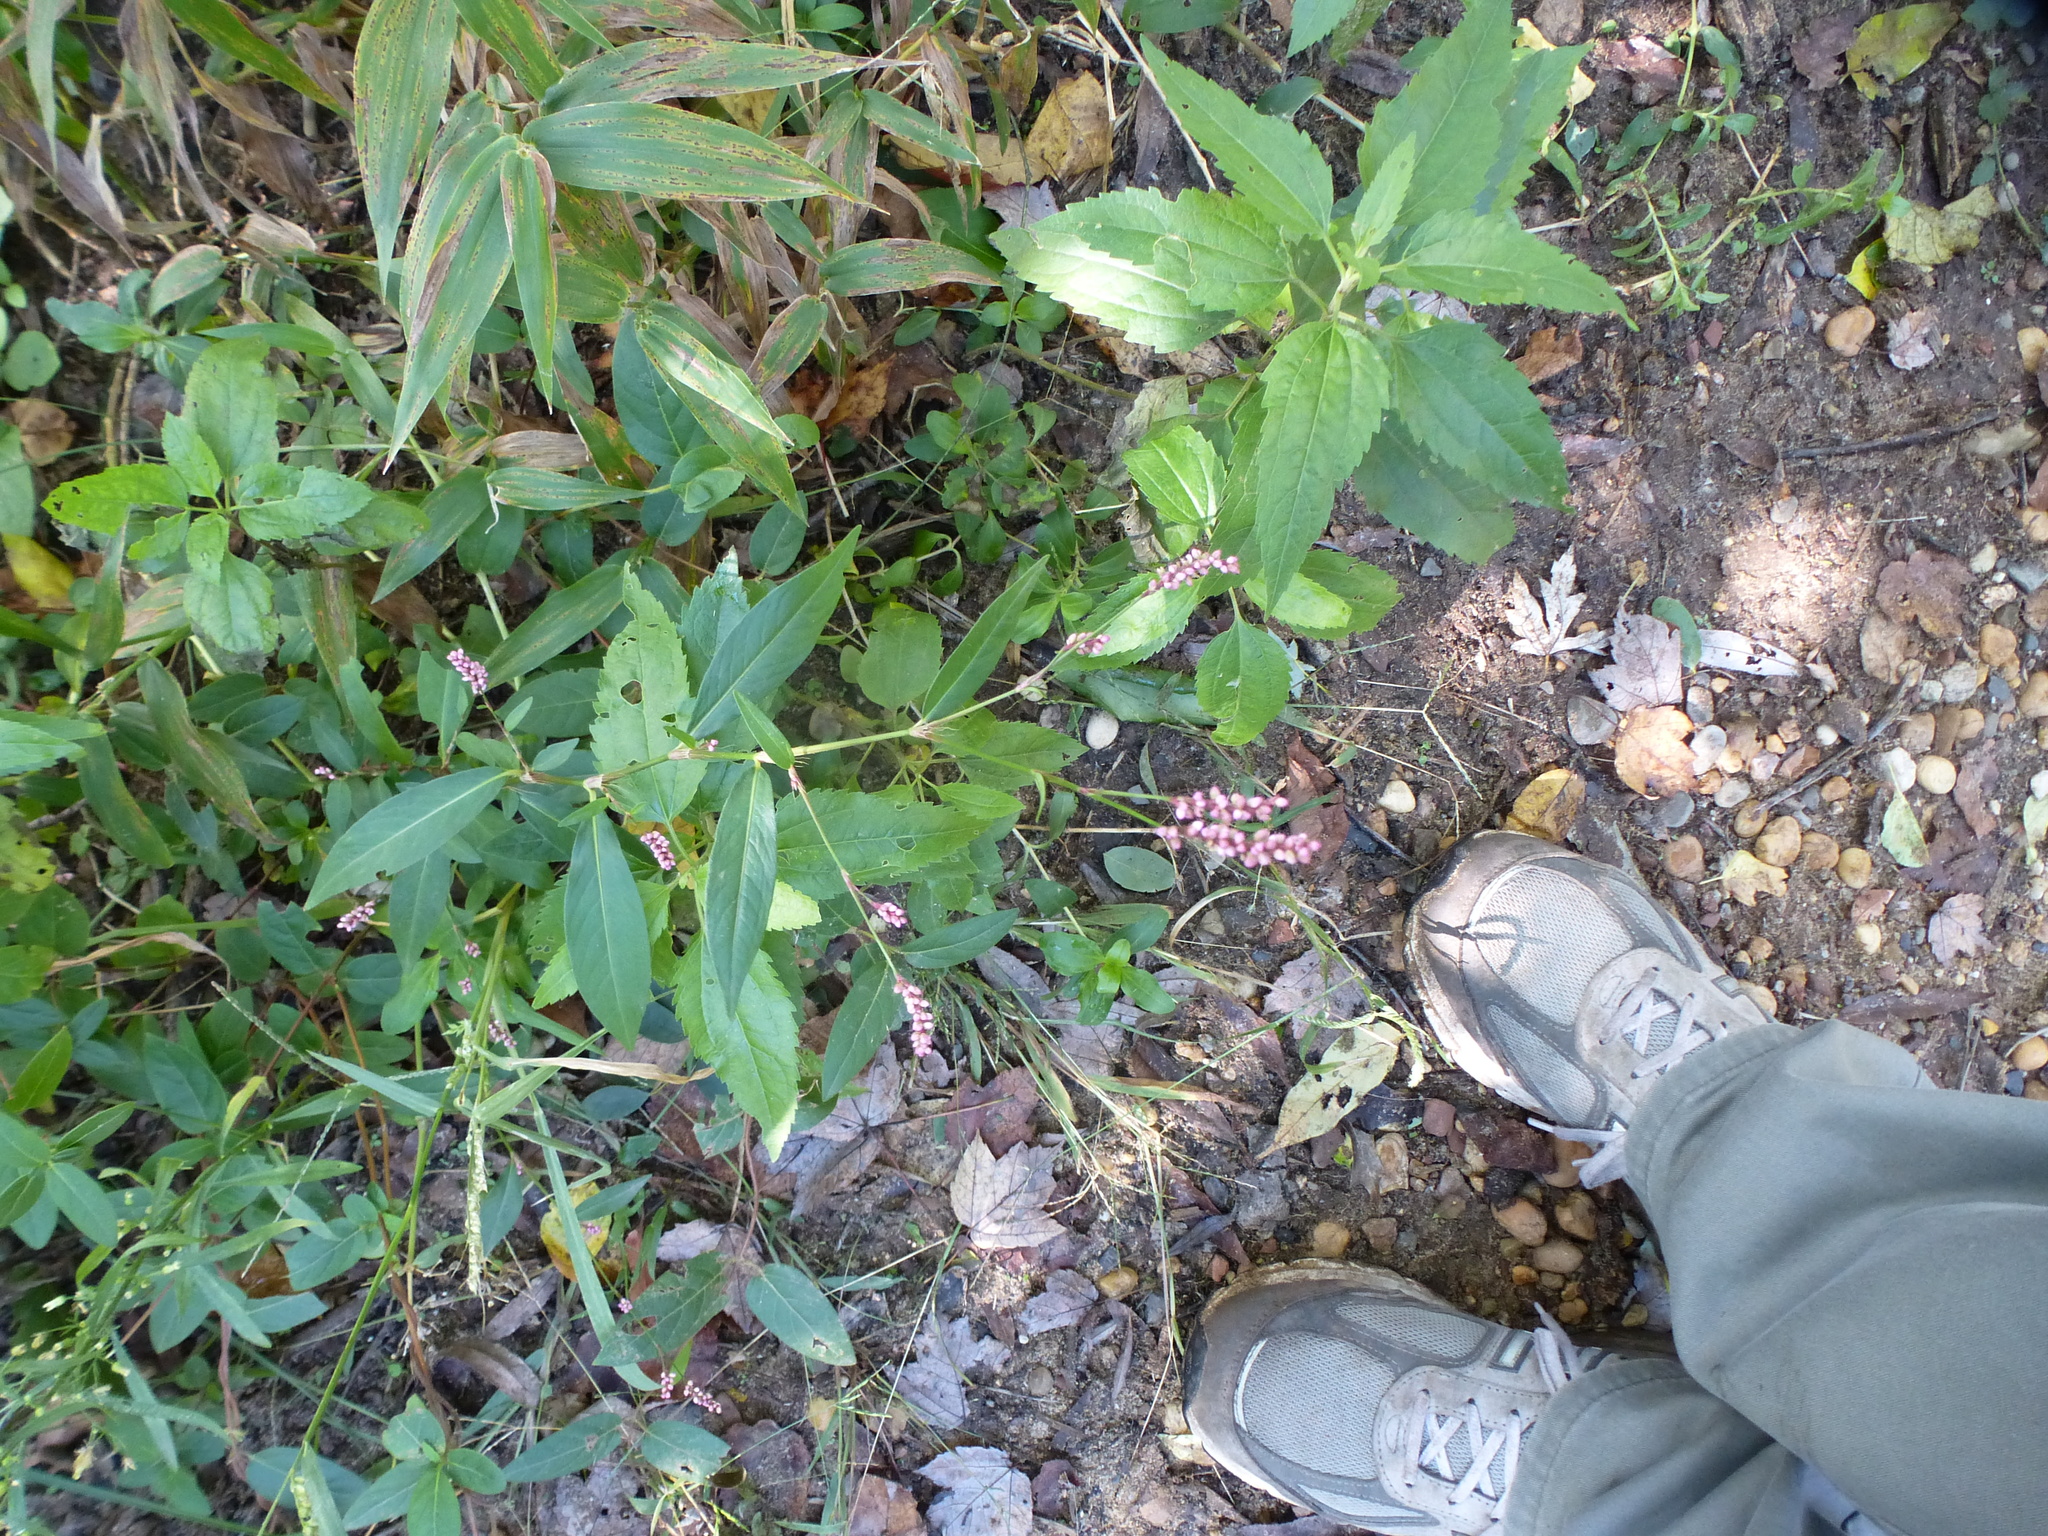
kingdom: Plantae
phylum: Tracheophyta
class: Magnoliopsida
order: Caryophyllales
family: Polygonaceae
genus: Persicaria
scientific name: Persicaria longiseta
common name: Bristly lady's-thumb
